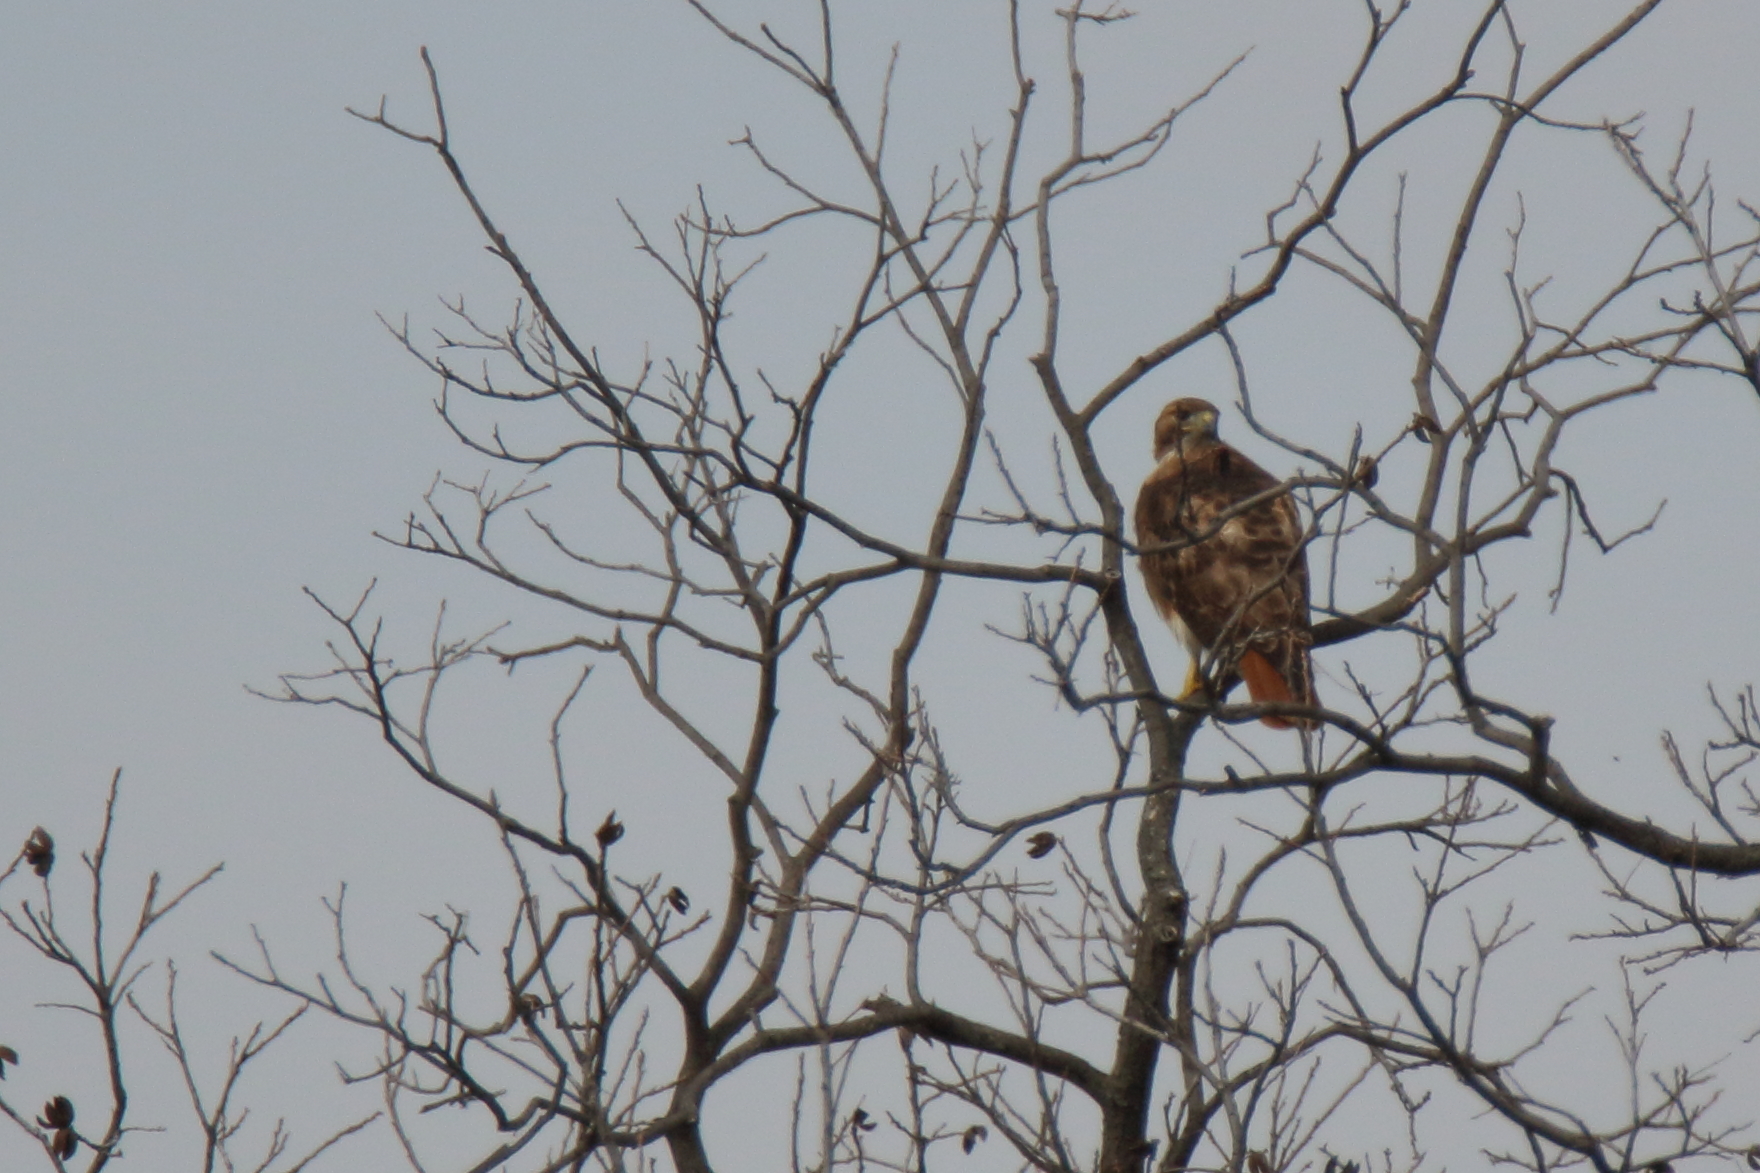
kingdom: Animalia
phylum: Chordata
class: Aves
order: Accipitriformes
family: Accipitridae
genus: Buteo
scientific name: Buteo jamaicensis
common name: Red-tailed hawk
